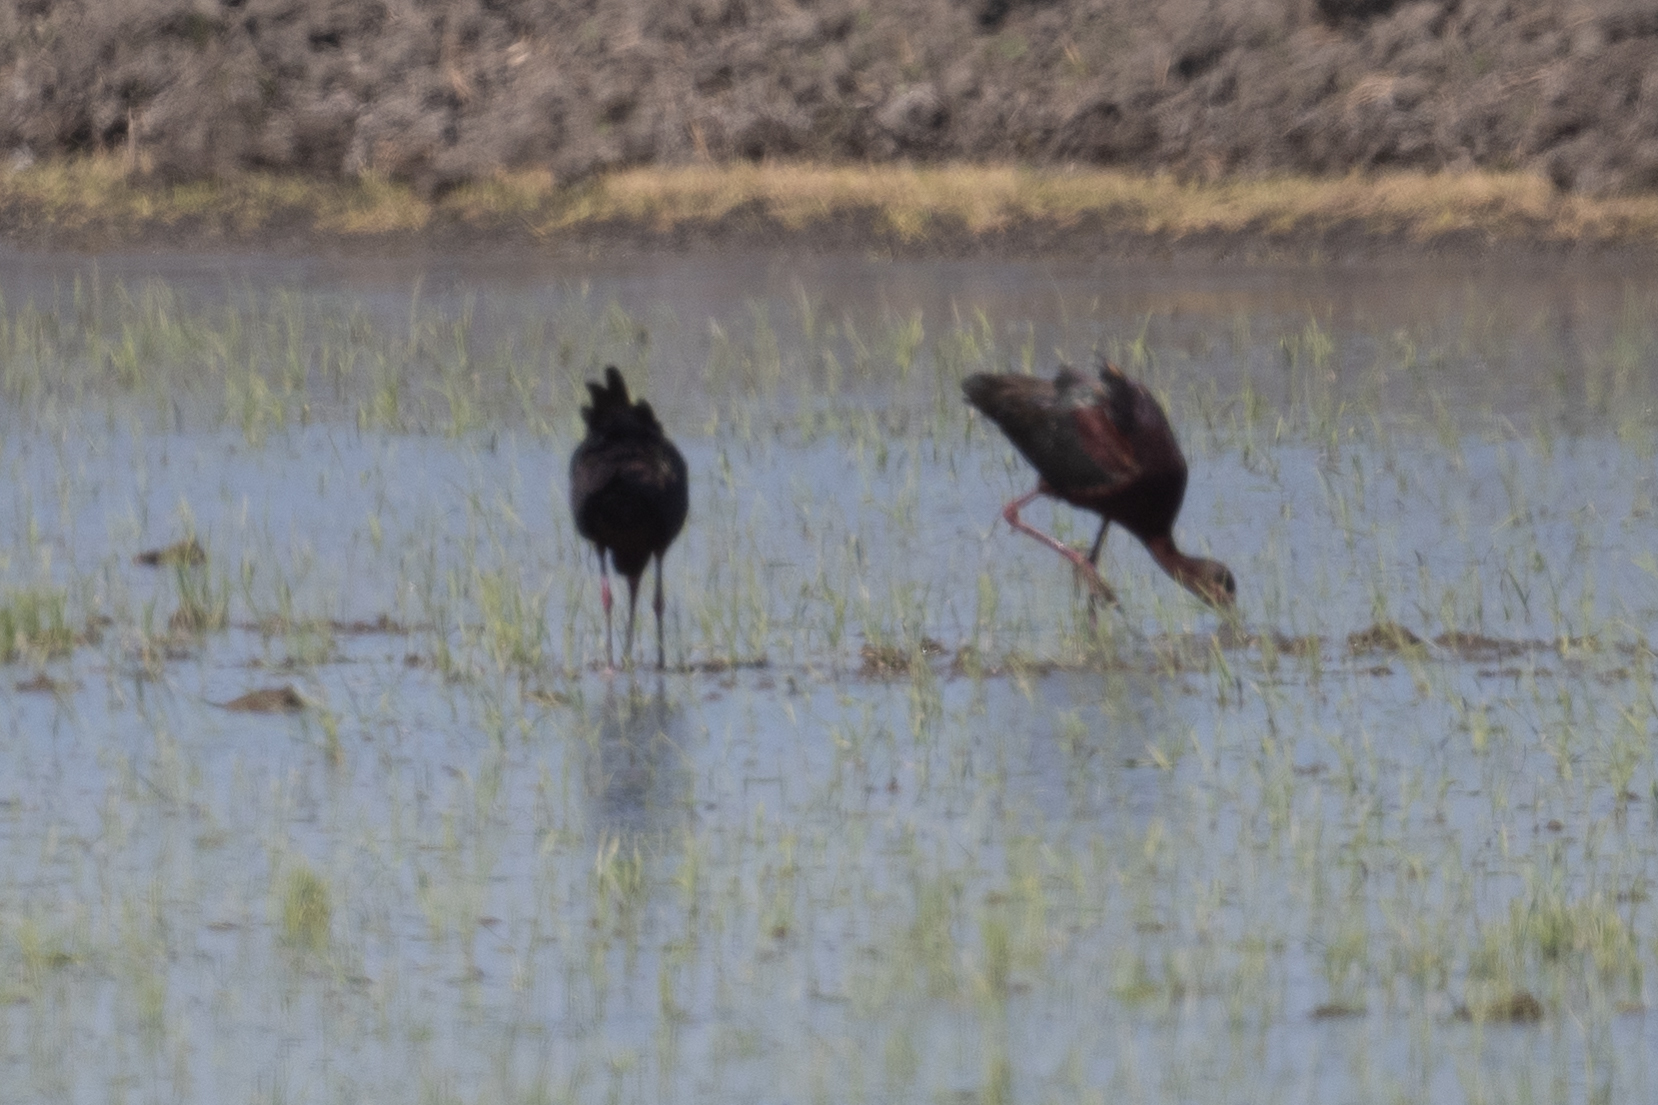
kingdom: Animalia
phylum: Chordata
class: Aves
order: Pelecaniformes
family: Threskiornithidae
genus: Plegadis
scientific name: Plegadis chihi
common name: White-faced ibis
